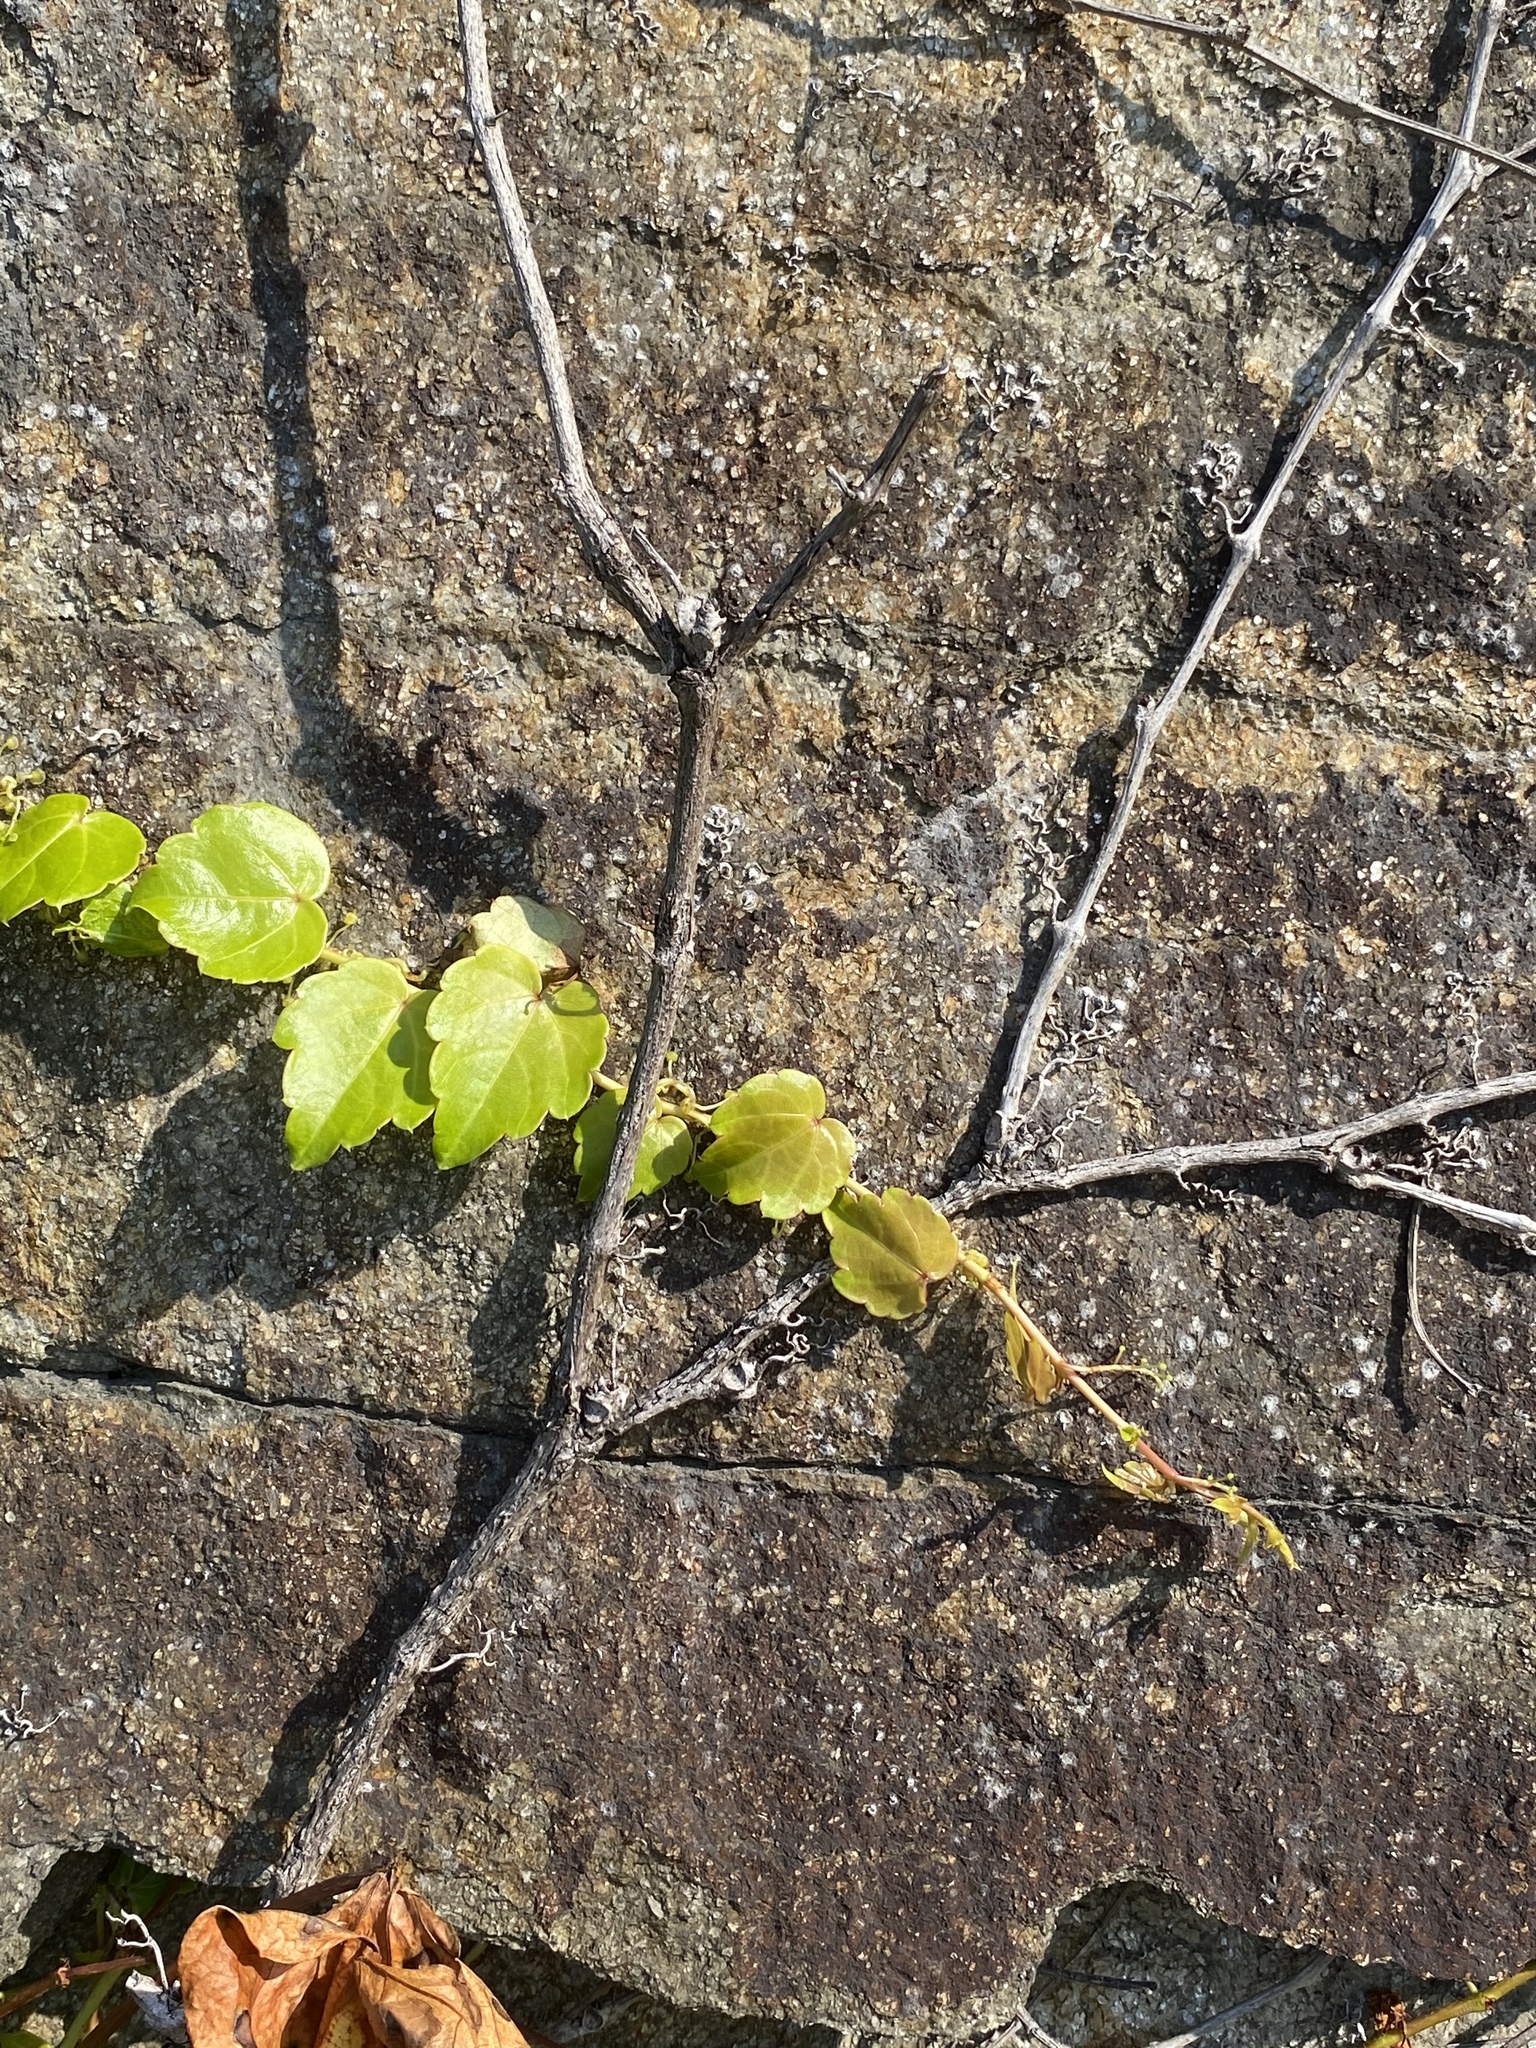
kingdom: Plantae
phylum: Tracheophyta
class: Magnoliopsida
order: Vitales
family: Vitaceae
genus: Parthenocissus
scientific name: Parthenocissus tricuspidata
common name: Boston ivy
